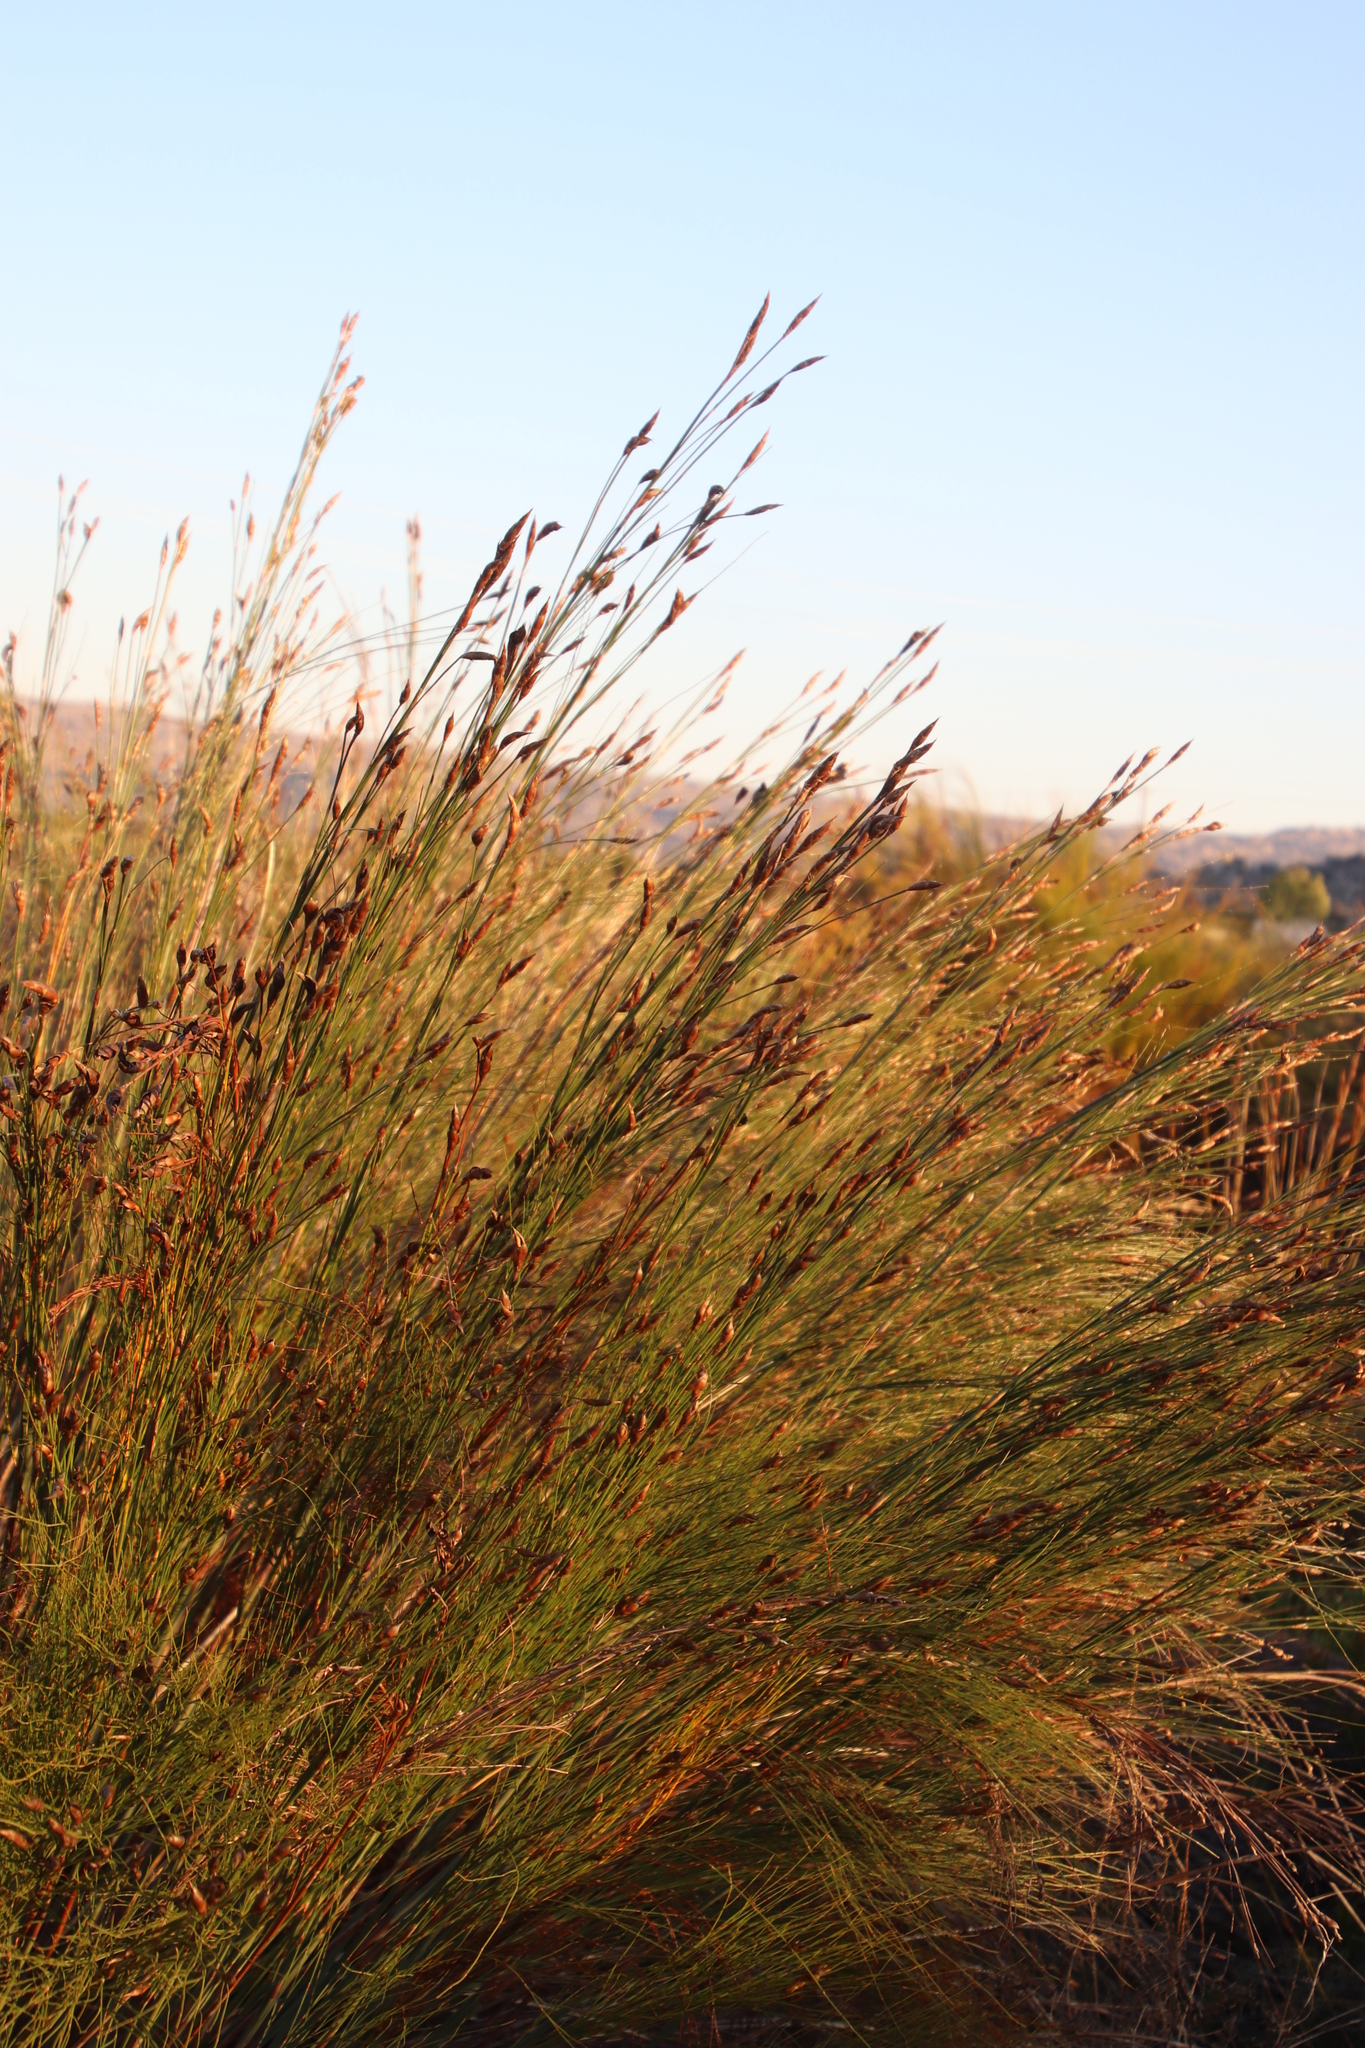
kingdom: Plantae
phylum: Tracheophyta
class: Liliopsida
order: Poales
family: Restionaceae
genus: Cannomois
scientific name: Cannomois robusta
